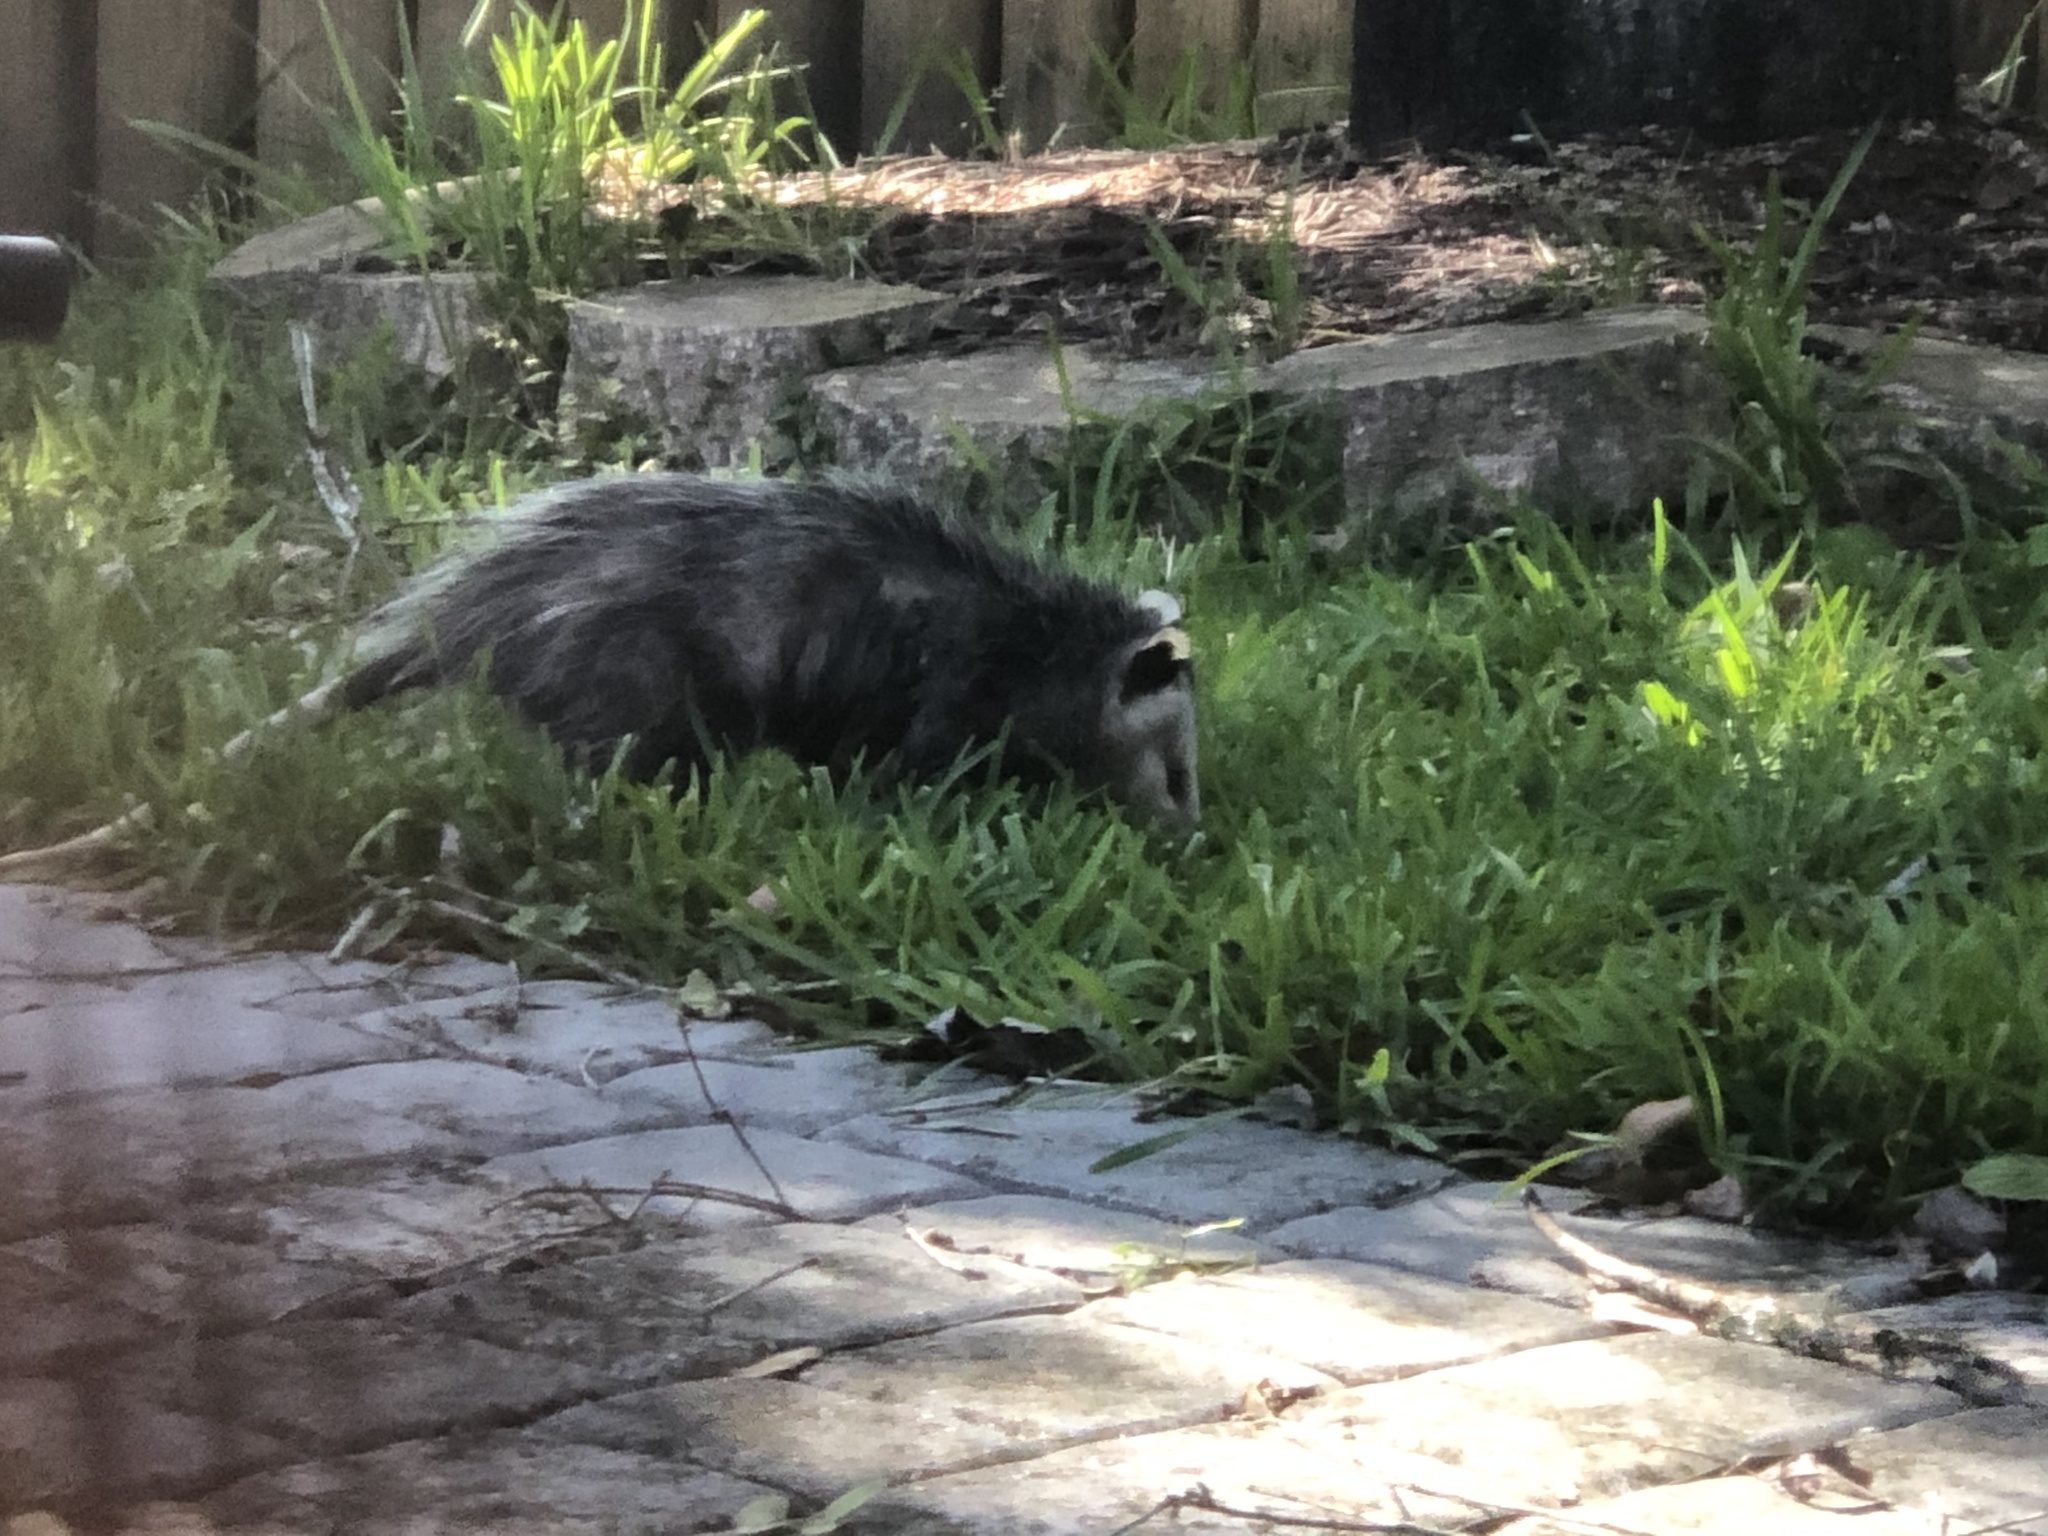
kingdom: Animalia
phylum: Chordata
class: Mammalia
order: Didelphimorphia
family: Didelphidae
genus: Didelphis
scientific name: Didelphis virginiana
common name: Virginia opossum
